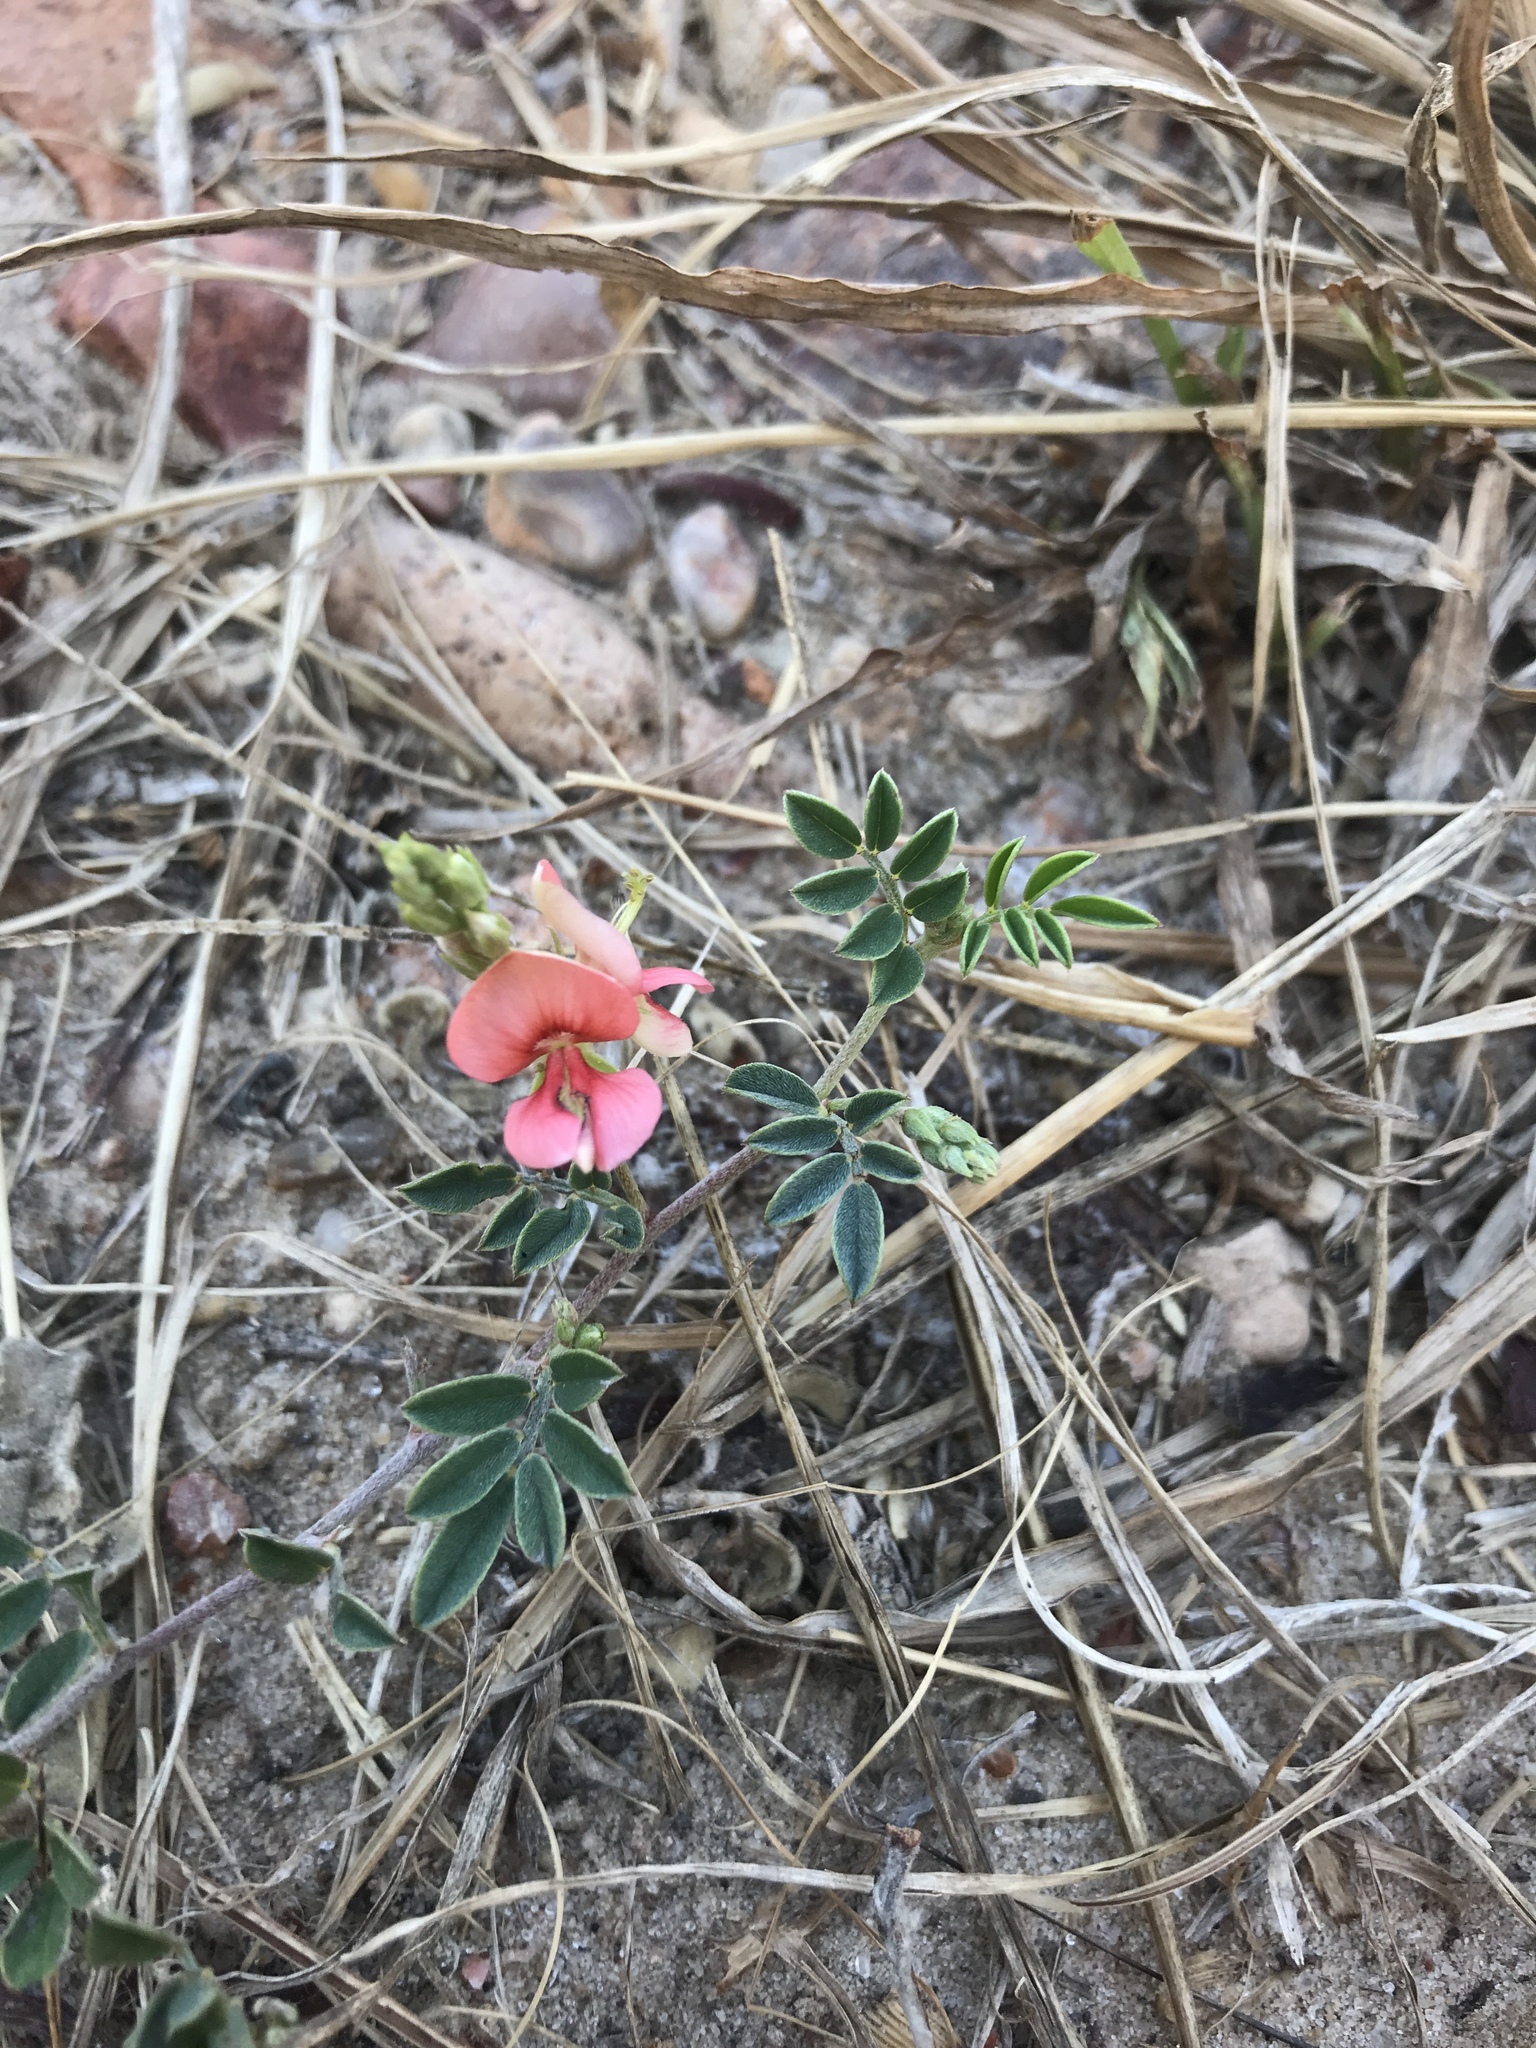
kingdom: Plantae
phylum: Tracheophyta
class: Magnoliopsida
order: Fabales
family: Fabaceae
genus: Indigofera
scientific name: Indigofera miniata
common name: Coast indigo
